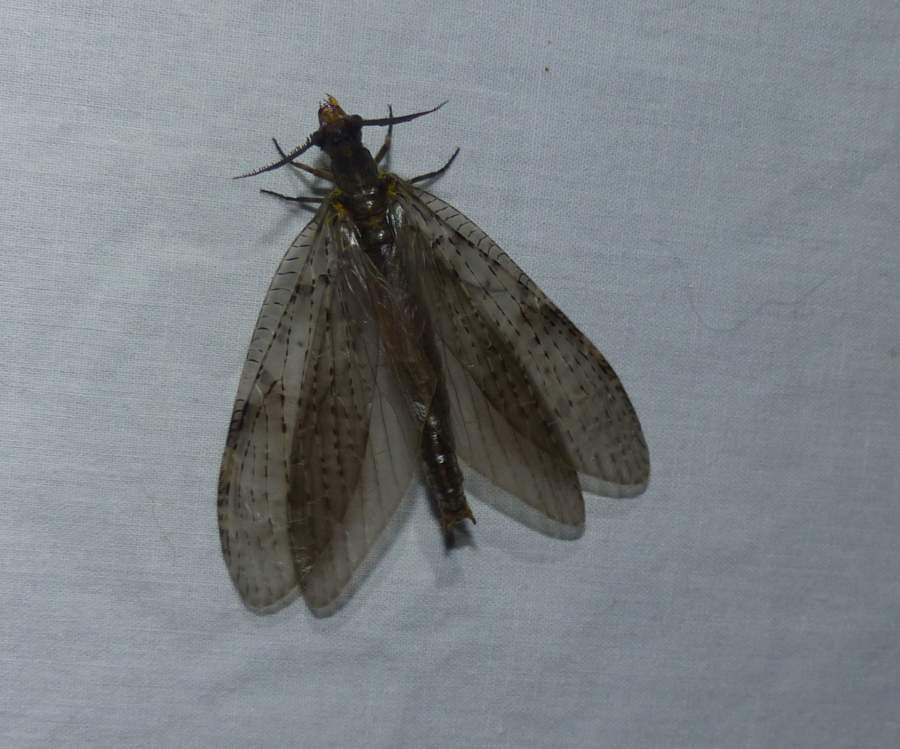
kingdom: Animalia
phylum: Arthropoda
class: Insecta
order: Megaloptera
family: Corydalidae
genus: Chauliodes
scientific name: Chauliodes pectinicornis
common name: Summer fishfly
